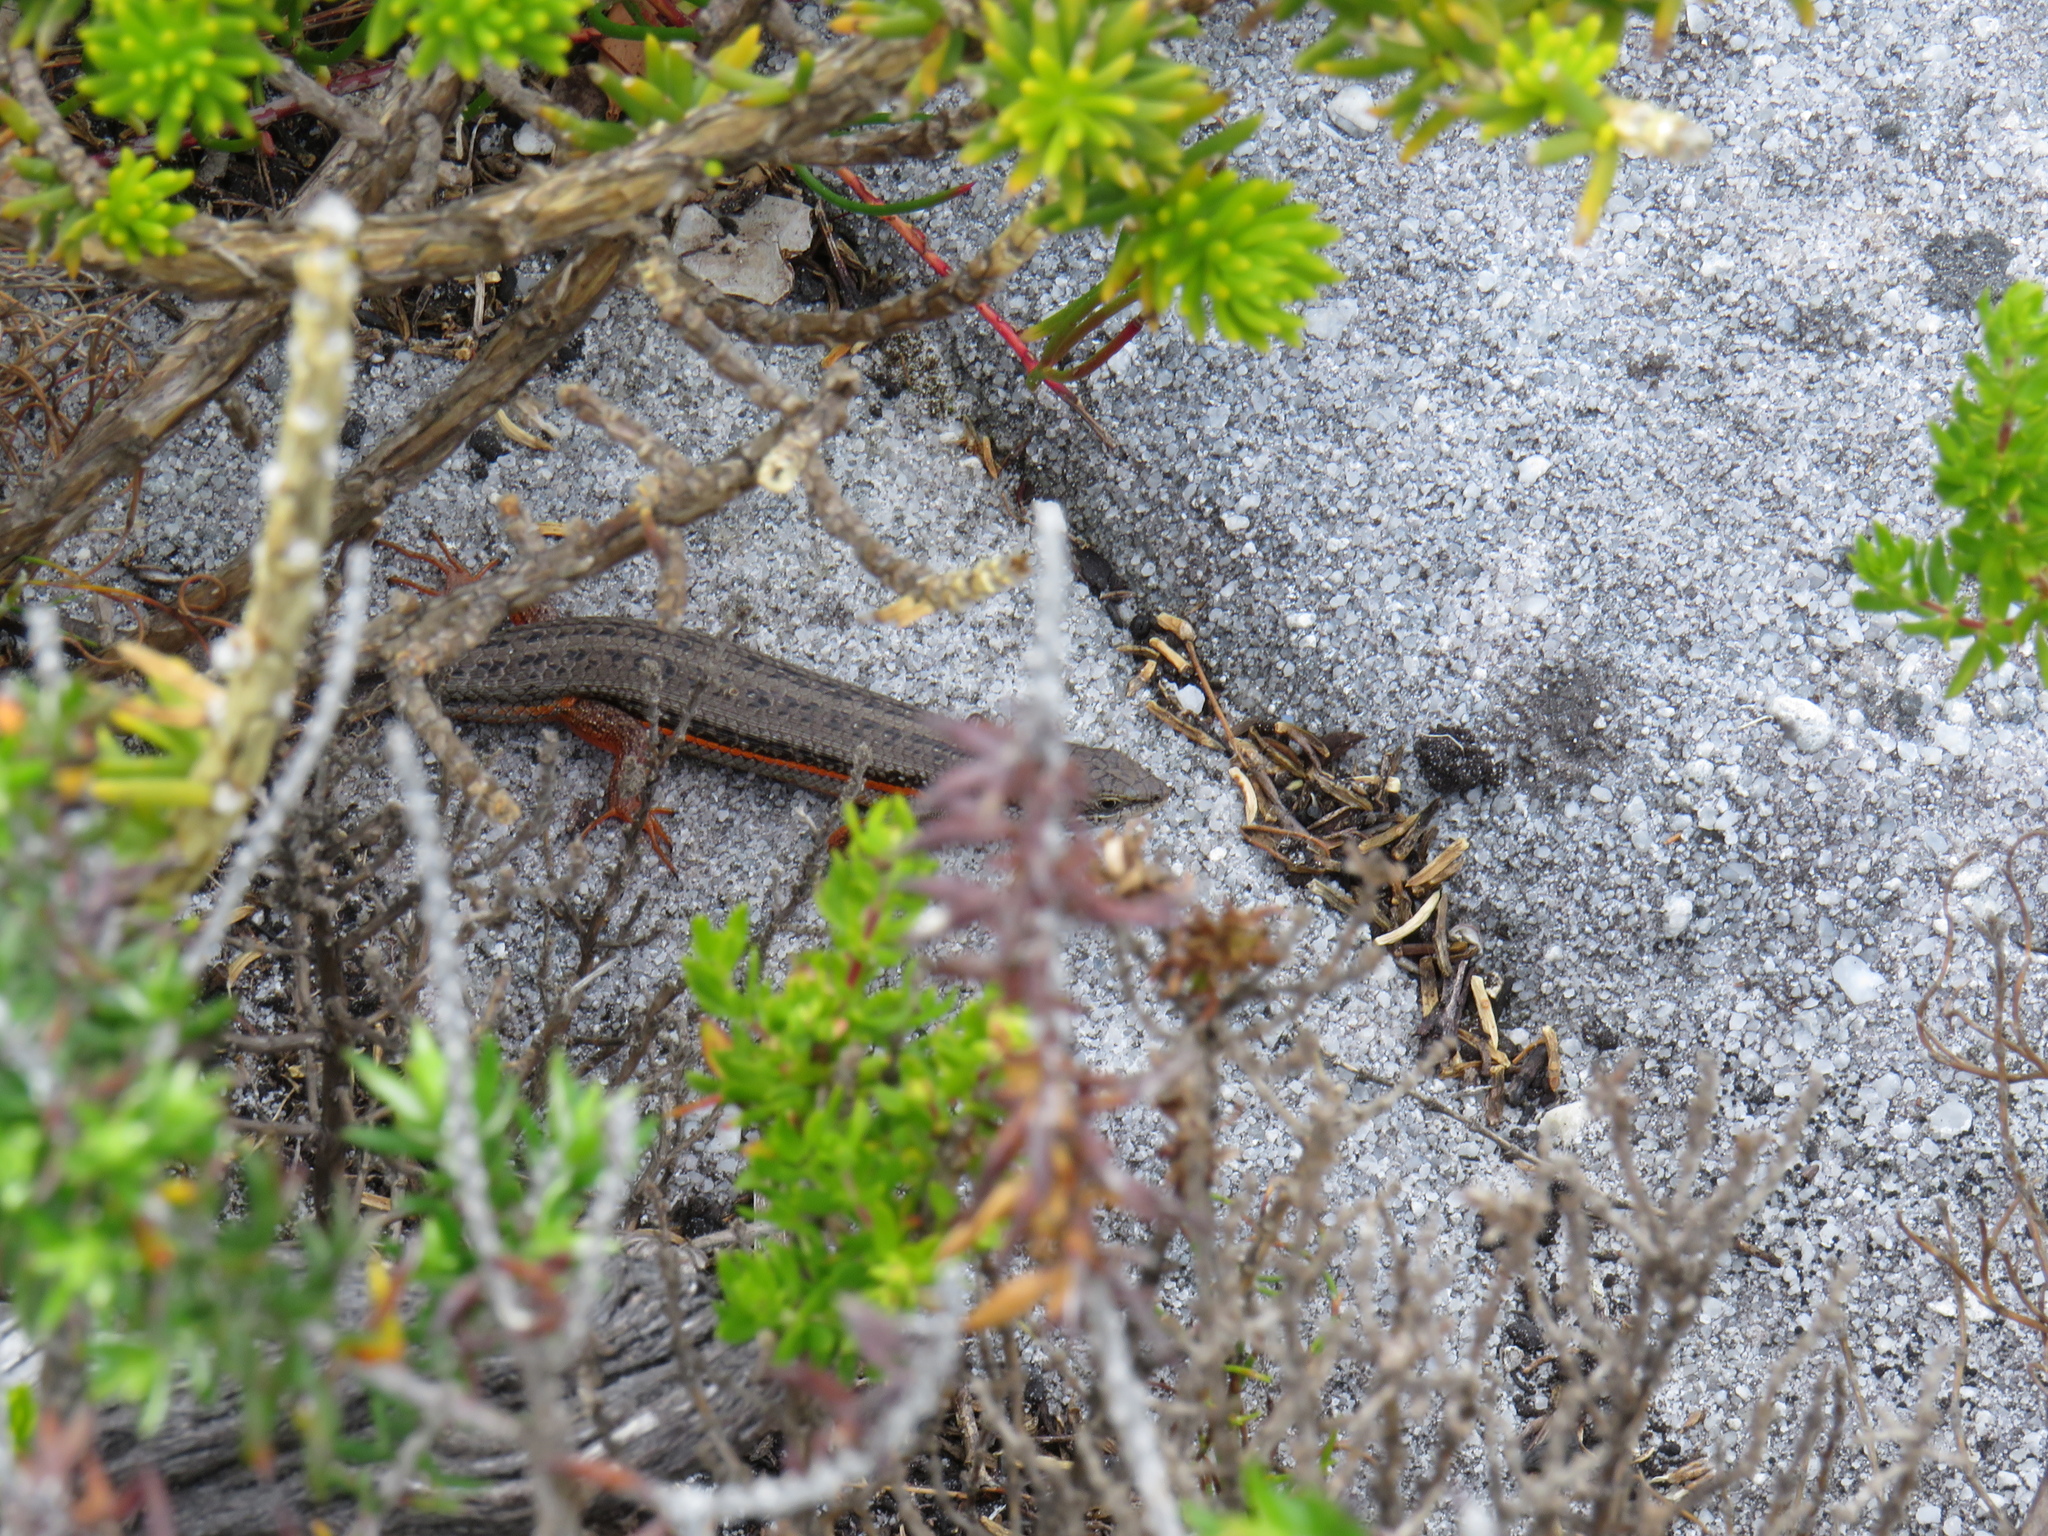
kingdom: Animalia
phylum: Chordata
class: Squamata
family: Scincidae
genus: Trachylepis
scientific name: Trachylepis homalocephala
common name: Red-sided skink
